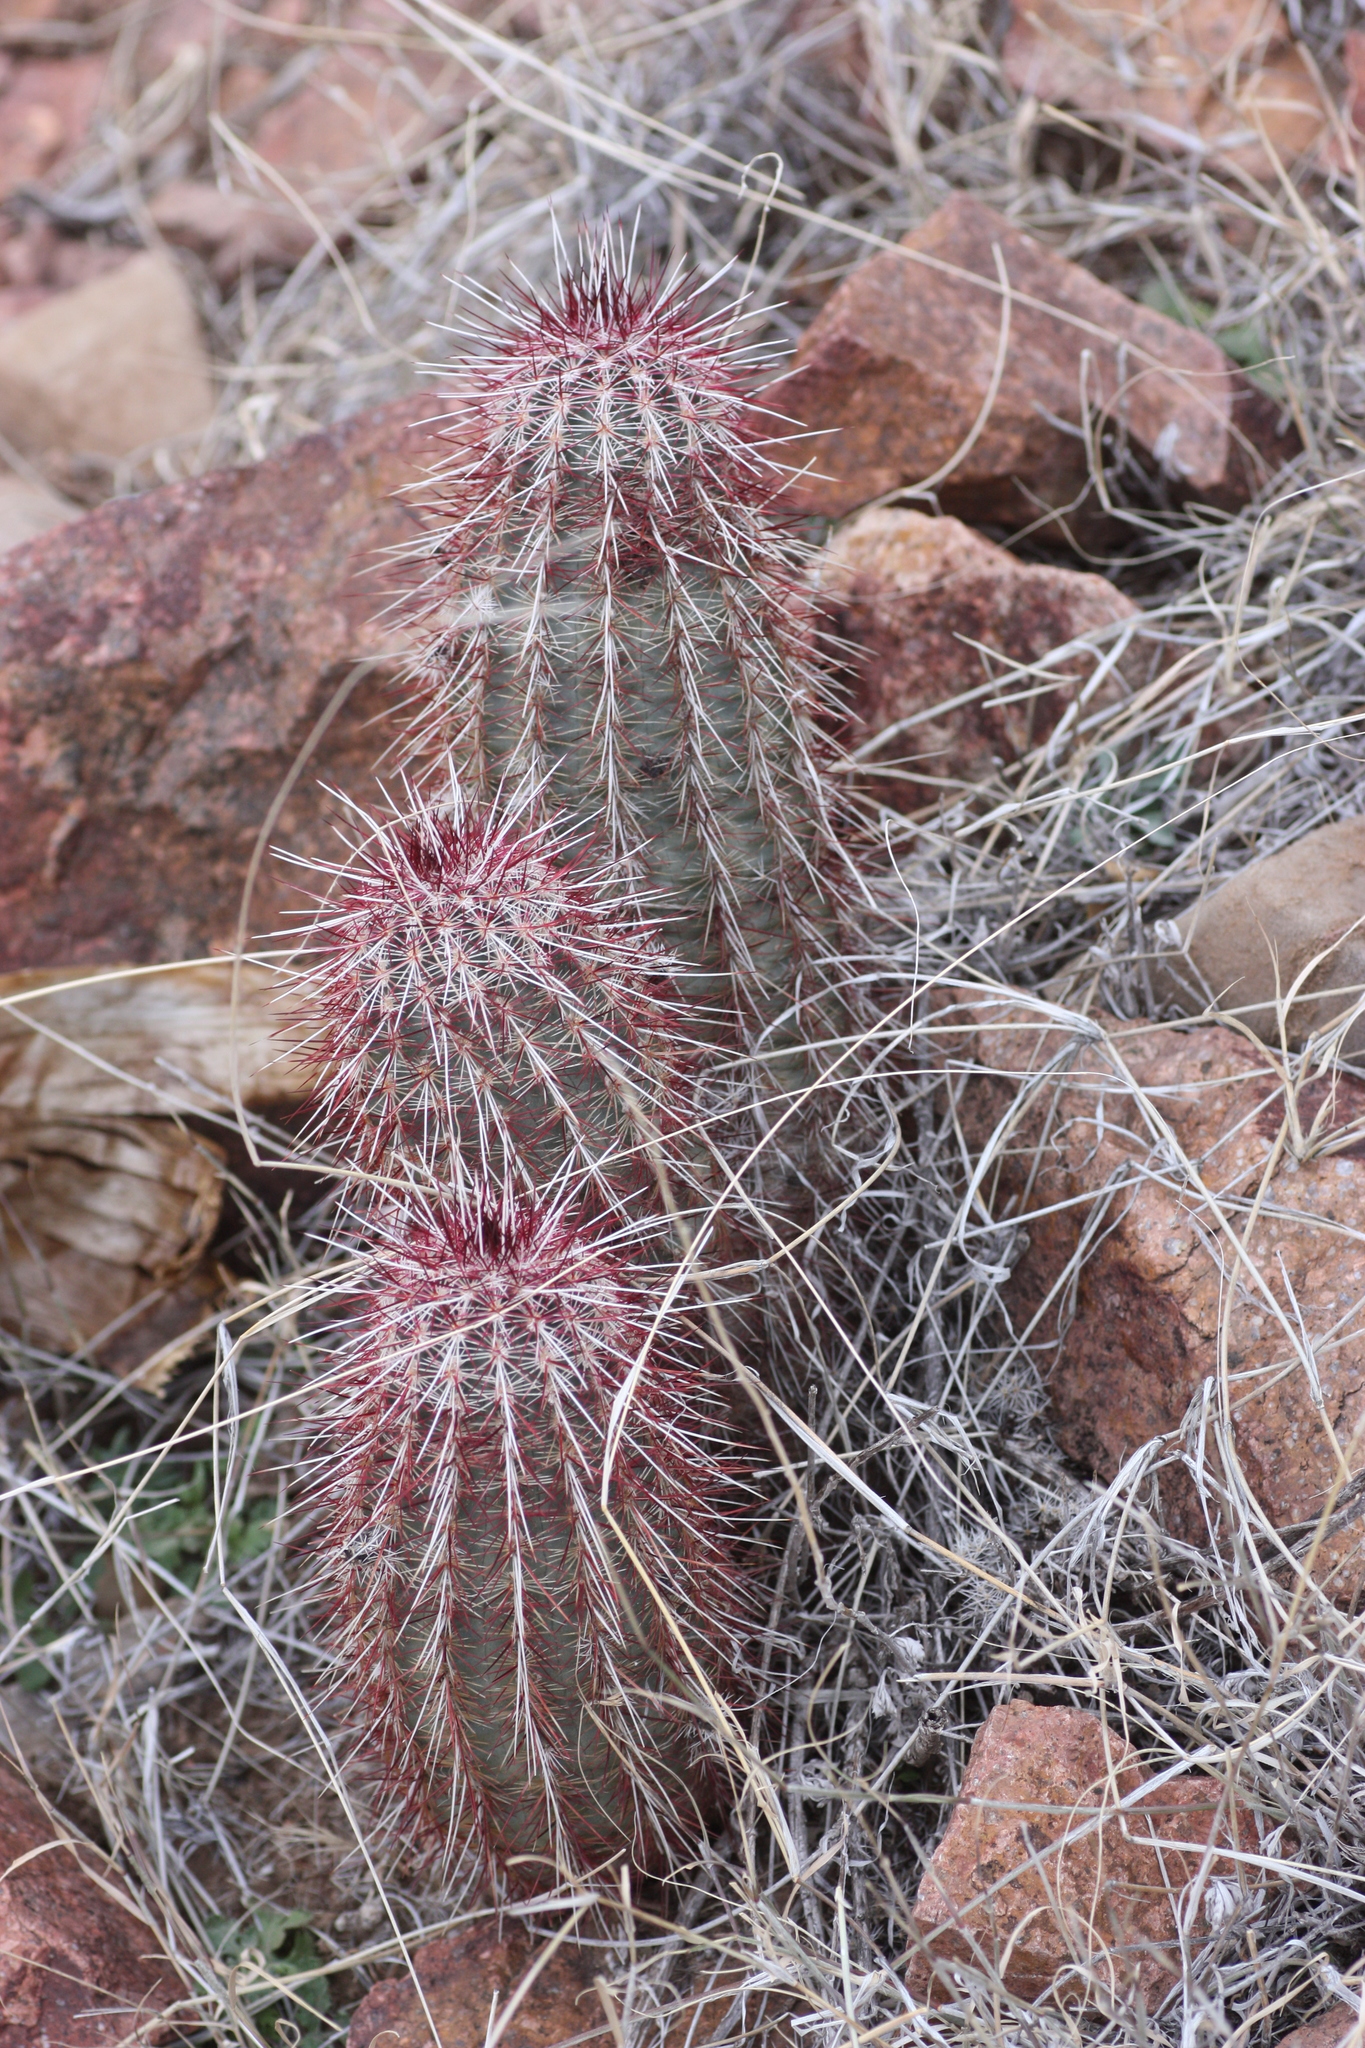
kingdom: Plantae
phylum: Tracheophyta
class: Magnoliopsida
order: Caryophyllales
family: Cactaceae
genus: Echinocereus
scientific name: Echinocereus viridiflorus
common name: Nylon hedgehog cactus
